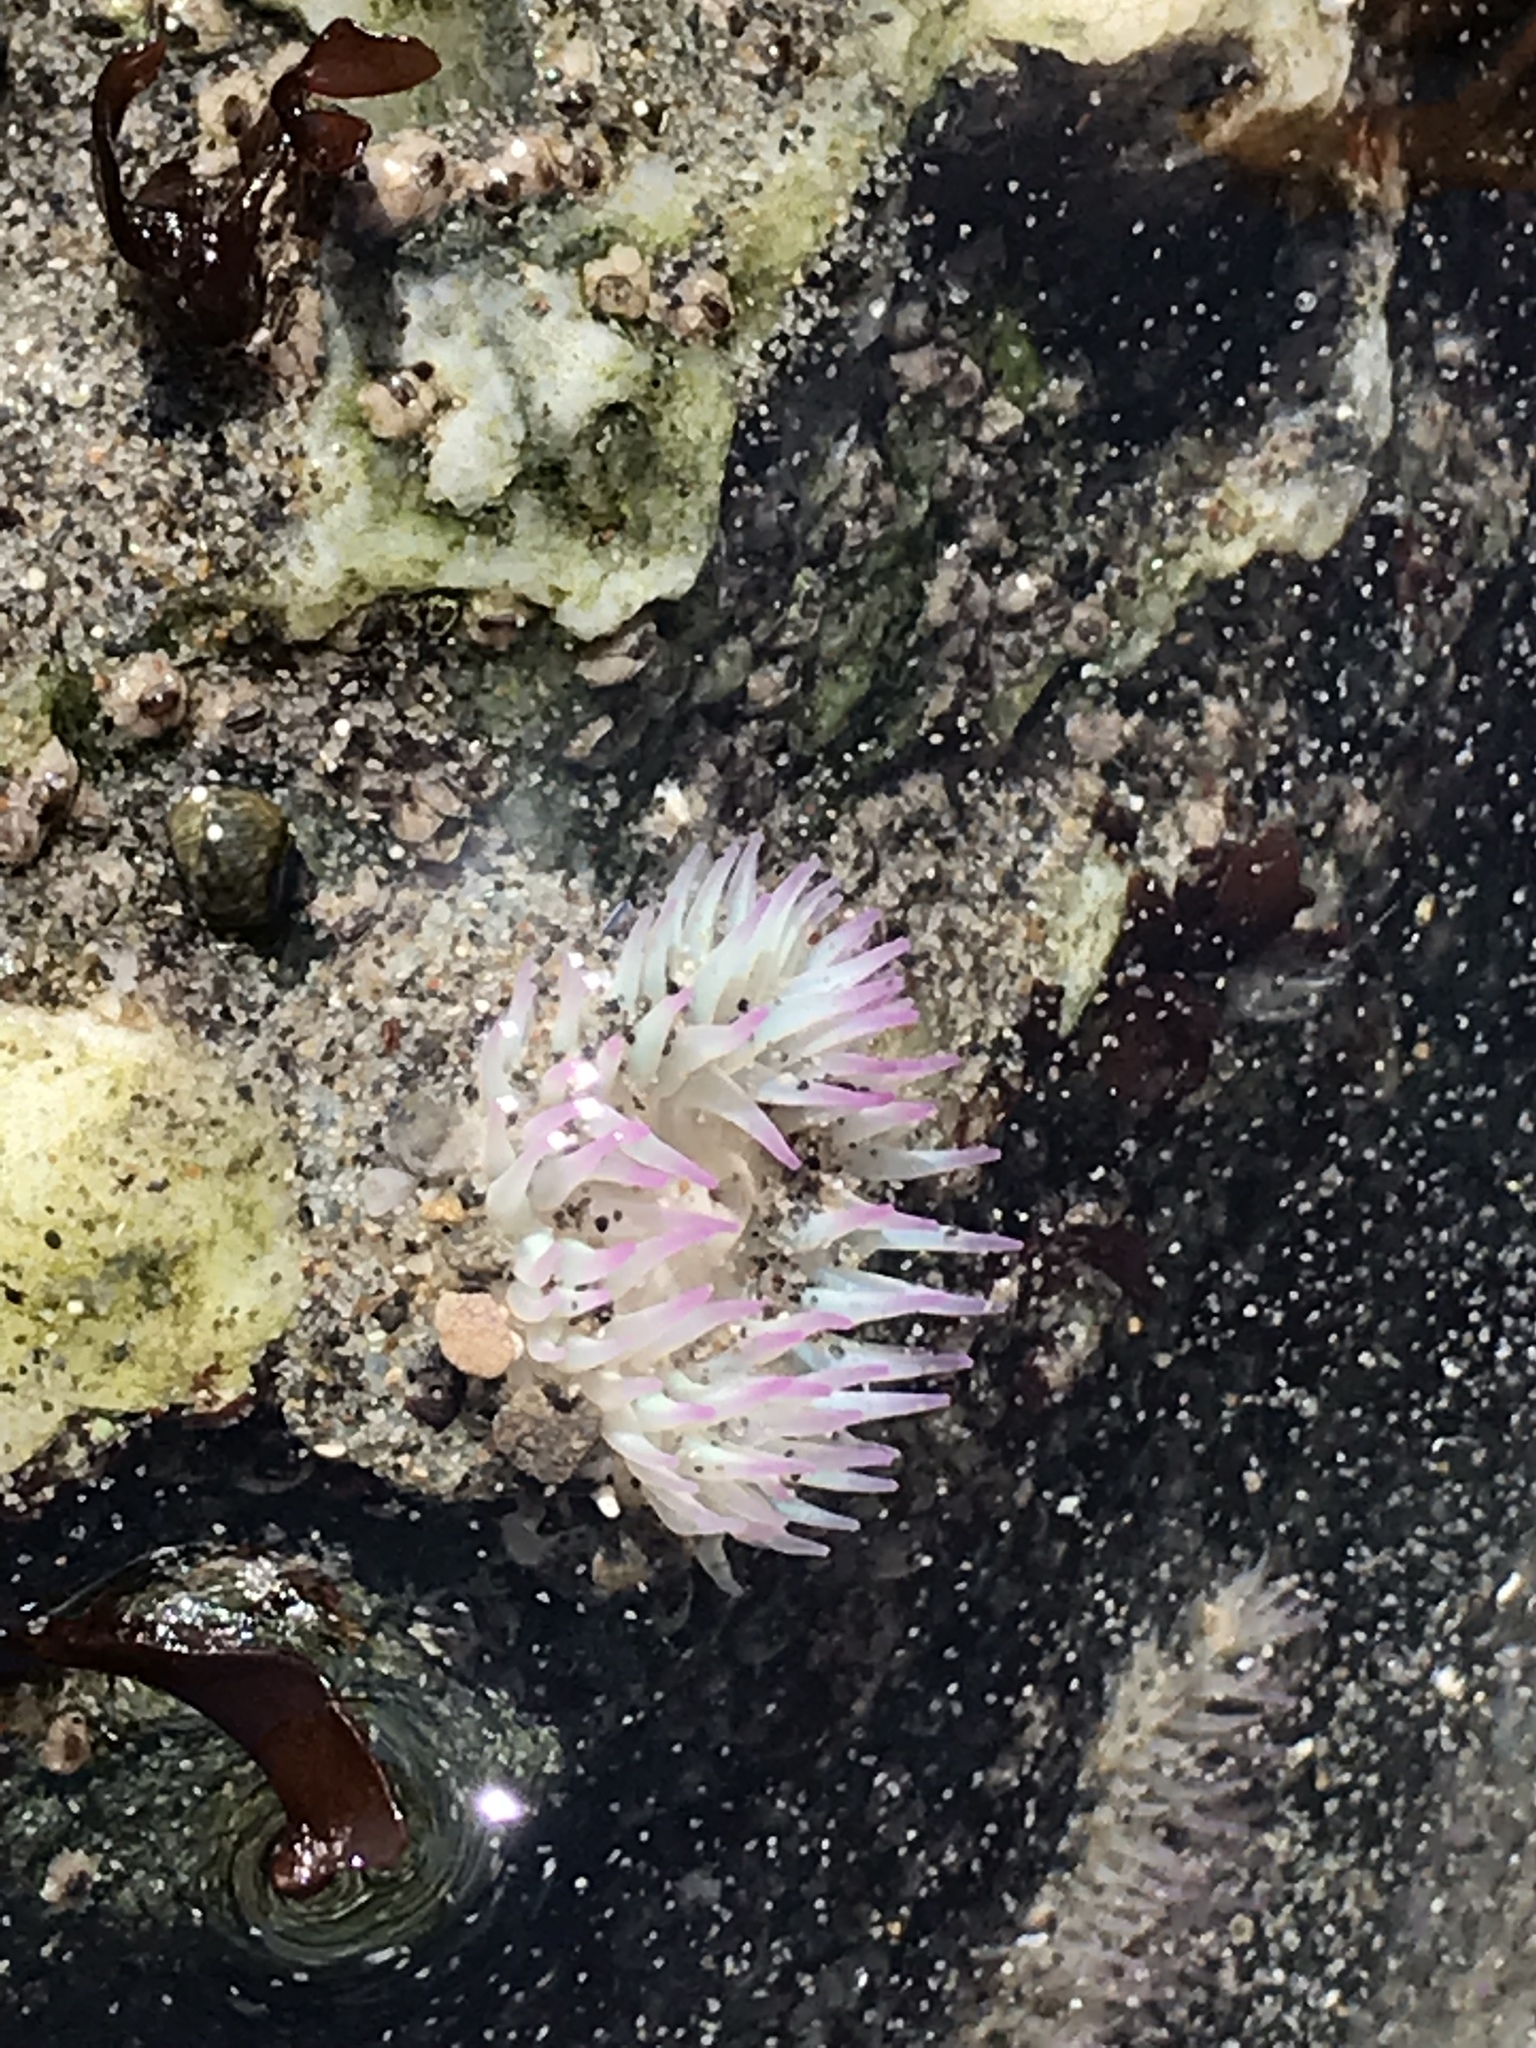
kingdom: Animalia
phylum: Cnidaria
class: Anthozoa
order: Actiniaria
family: Actiniidae
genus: Anthopleura
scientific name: Anthopleura elegantissima
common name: Clonal anemone
